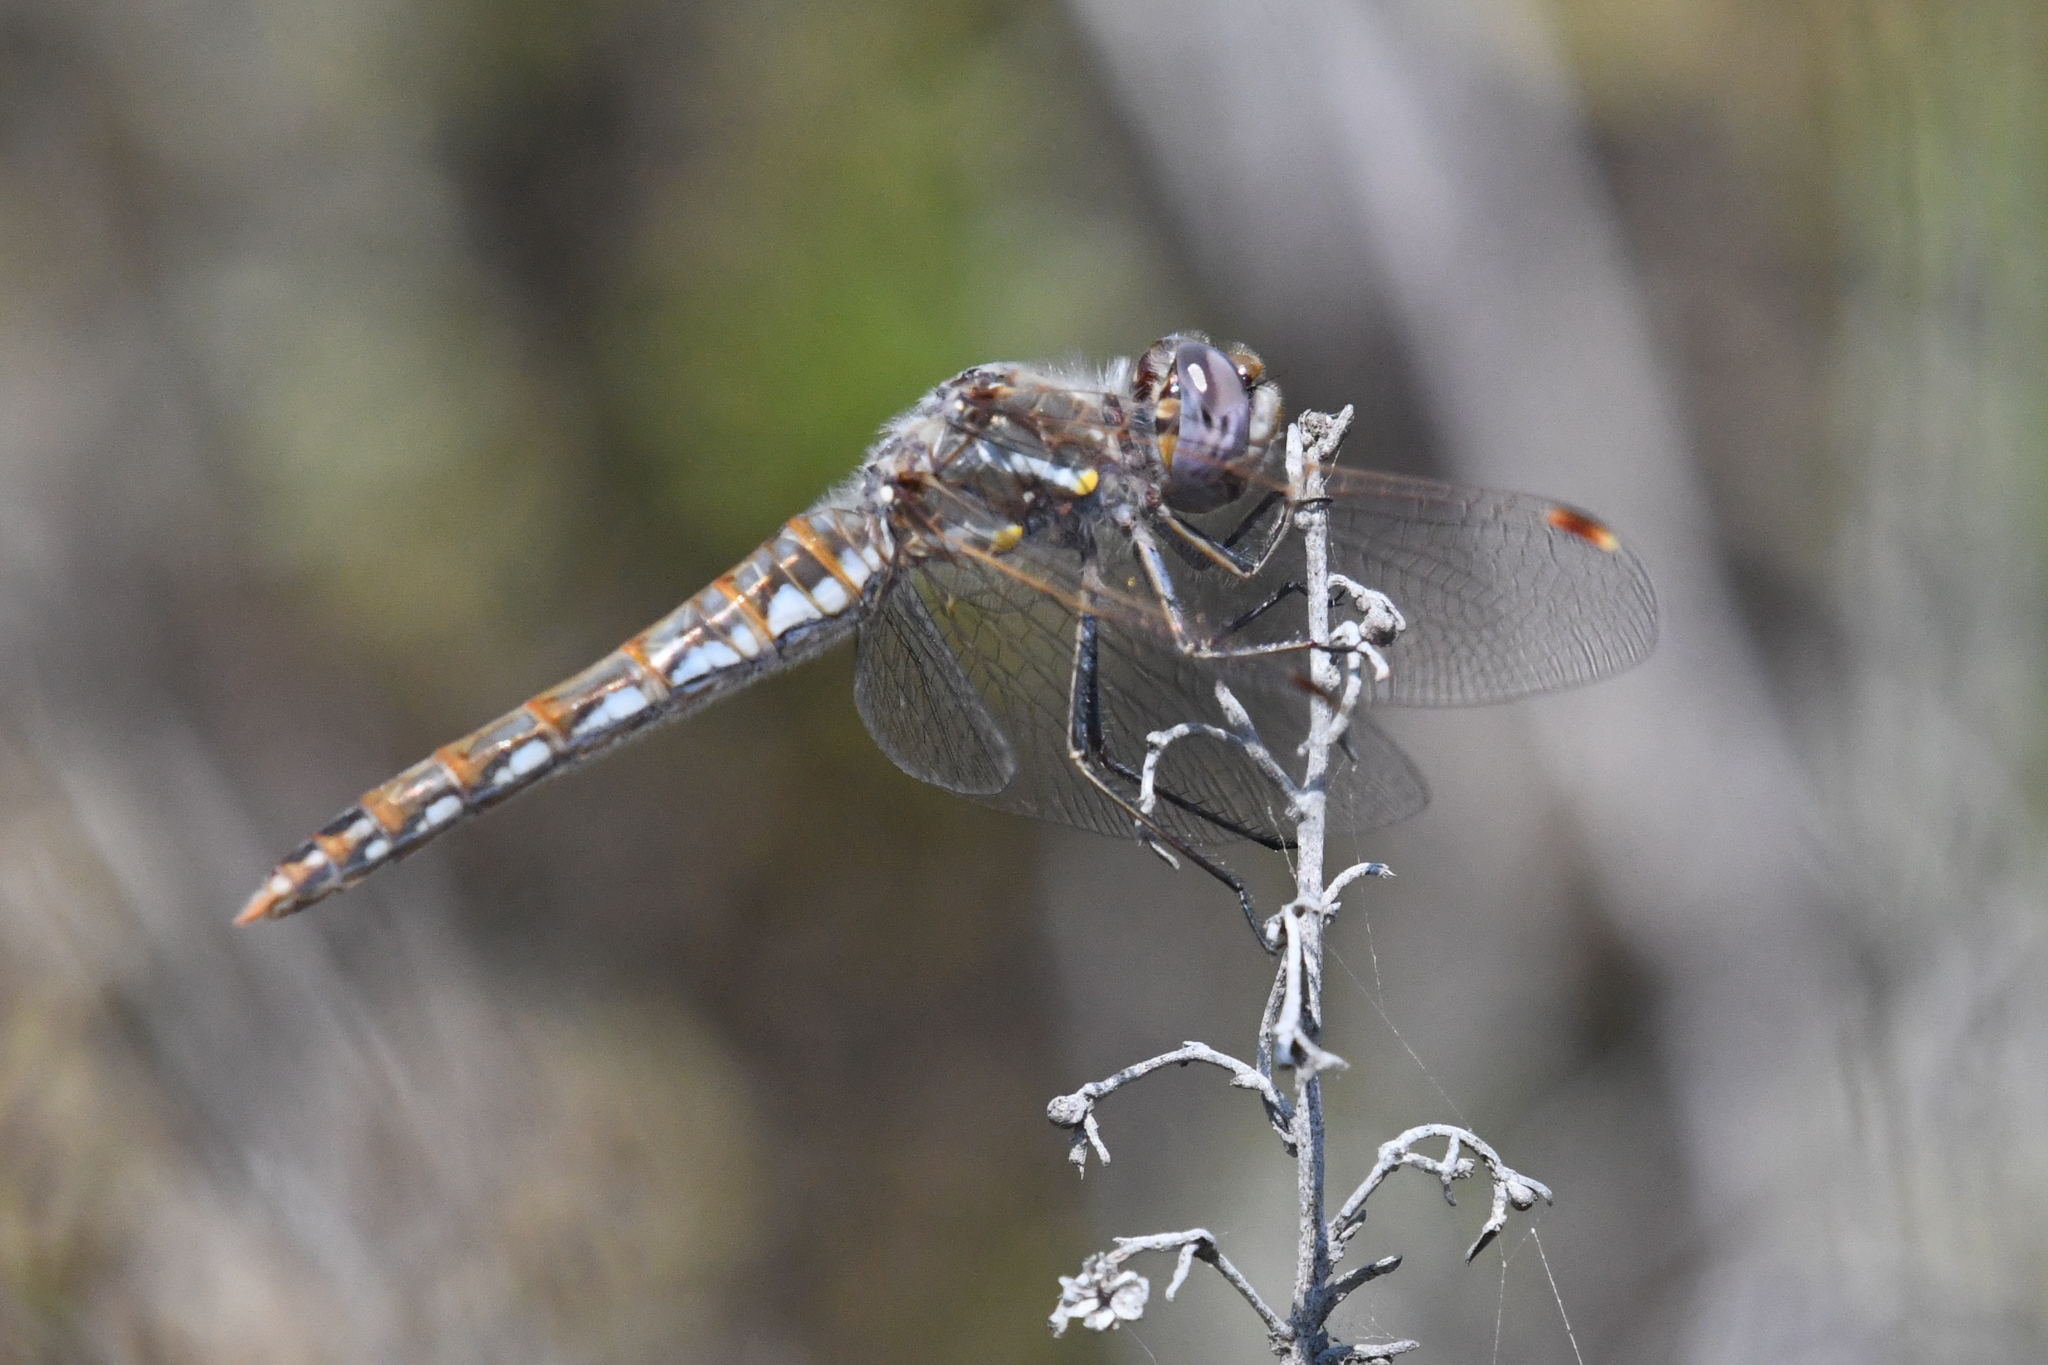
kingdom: Animalia
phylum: Arthropoda
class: Insecta
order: Odonata
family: Libellulidae
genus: Sympetrum
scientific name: Sympetrum corruptum
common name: Variegated meadowhawk
